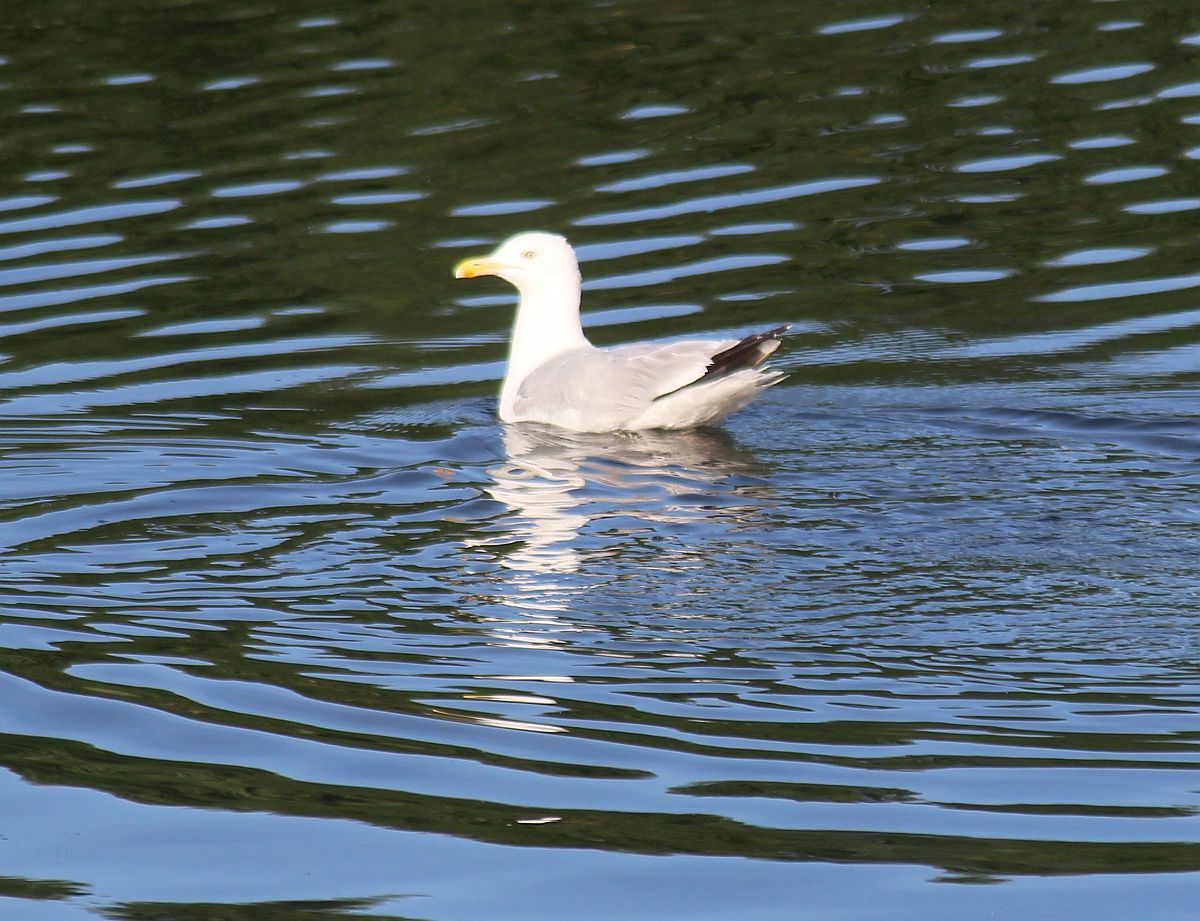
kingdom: Animalia
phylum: Chordata
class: Aves
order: Charadriiformes
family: Laridae
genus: Larus
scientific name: Larus argentatus
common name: Herring gull
